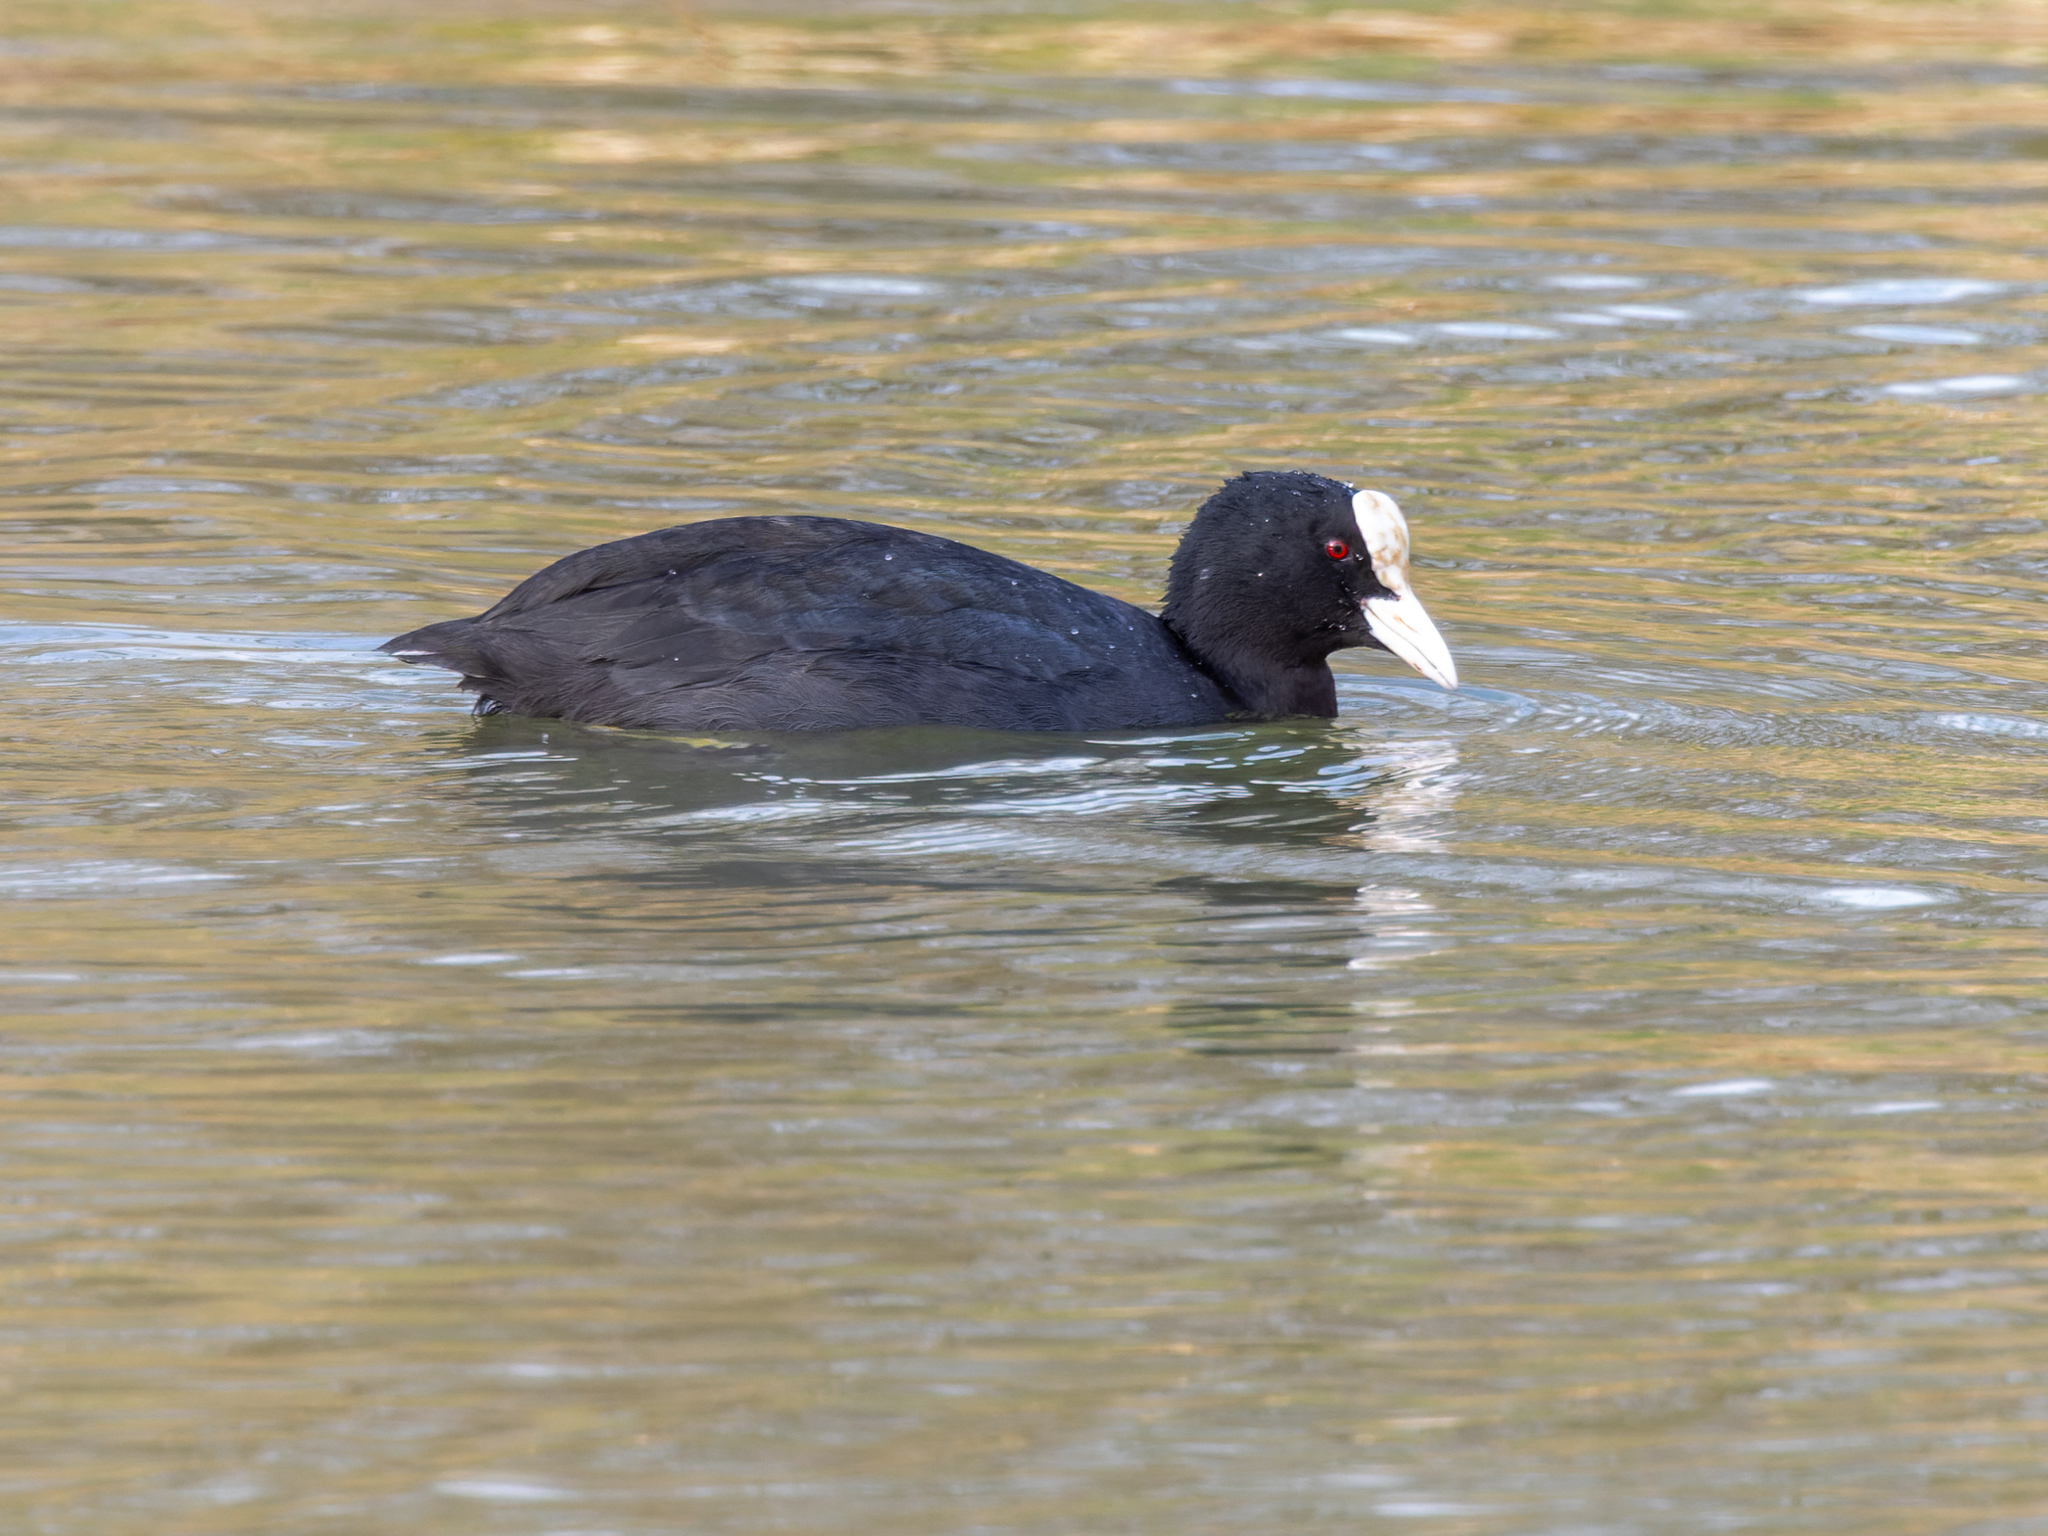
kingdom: Animalia
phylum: Chordata
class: Aves
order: Gruiformes
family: Rallidae
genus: Fulica
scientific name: Fulica atra
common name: Eurasian coot
